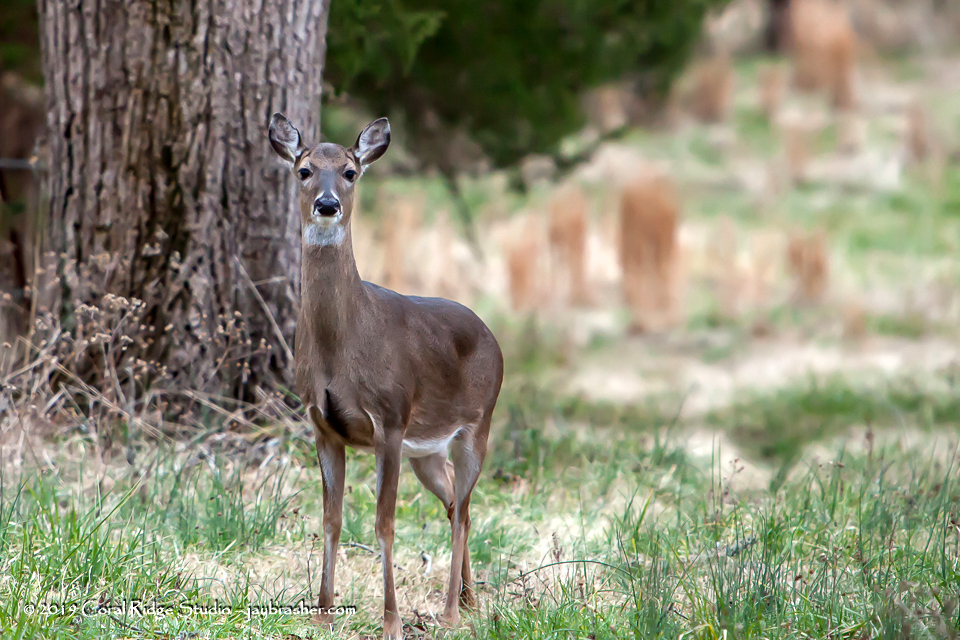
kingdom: Animalia
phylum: Chordata
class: Mammalia
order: Artiodactyla
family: Cervidae
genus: Odocoileus
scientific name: Odocoileus virginianus
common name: White-tailed deer
